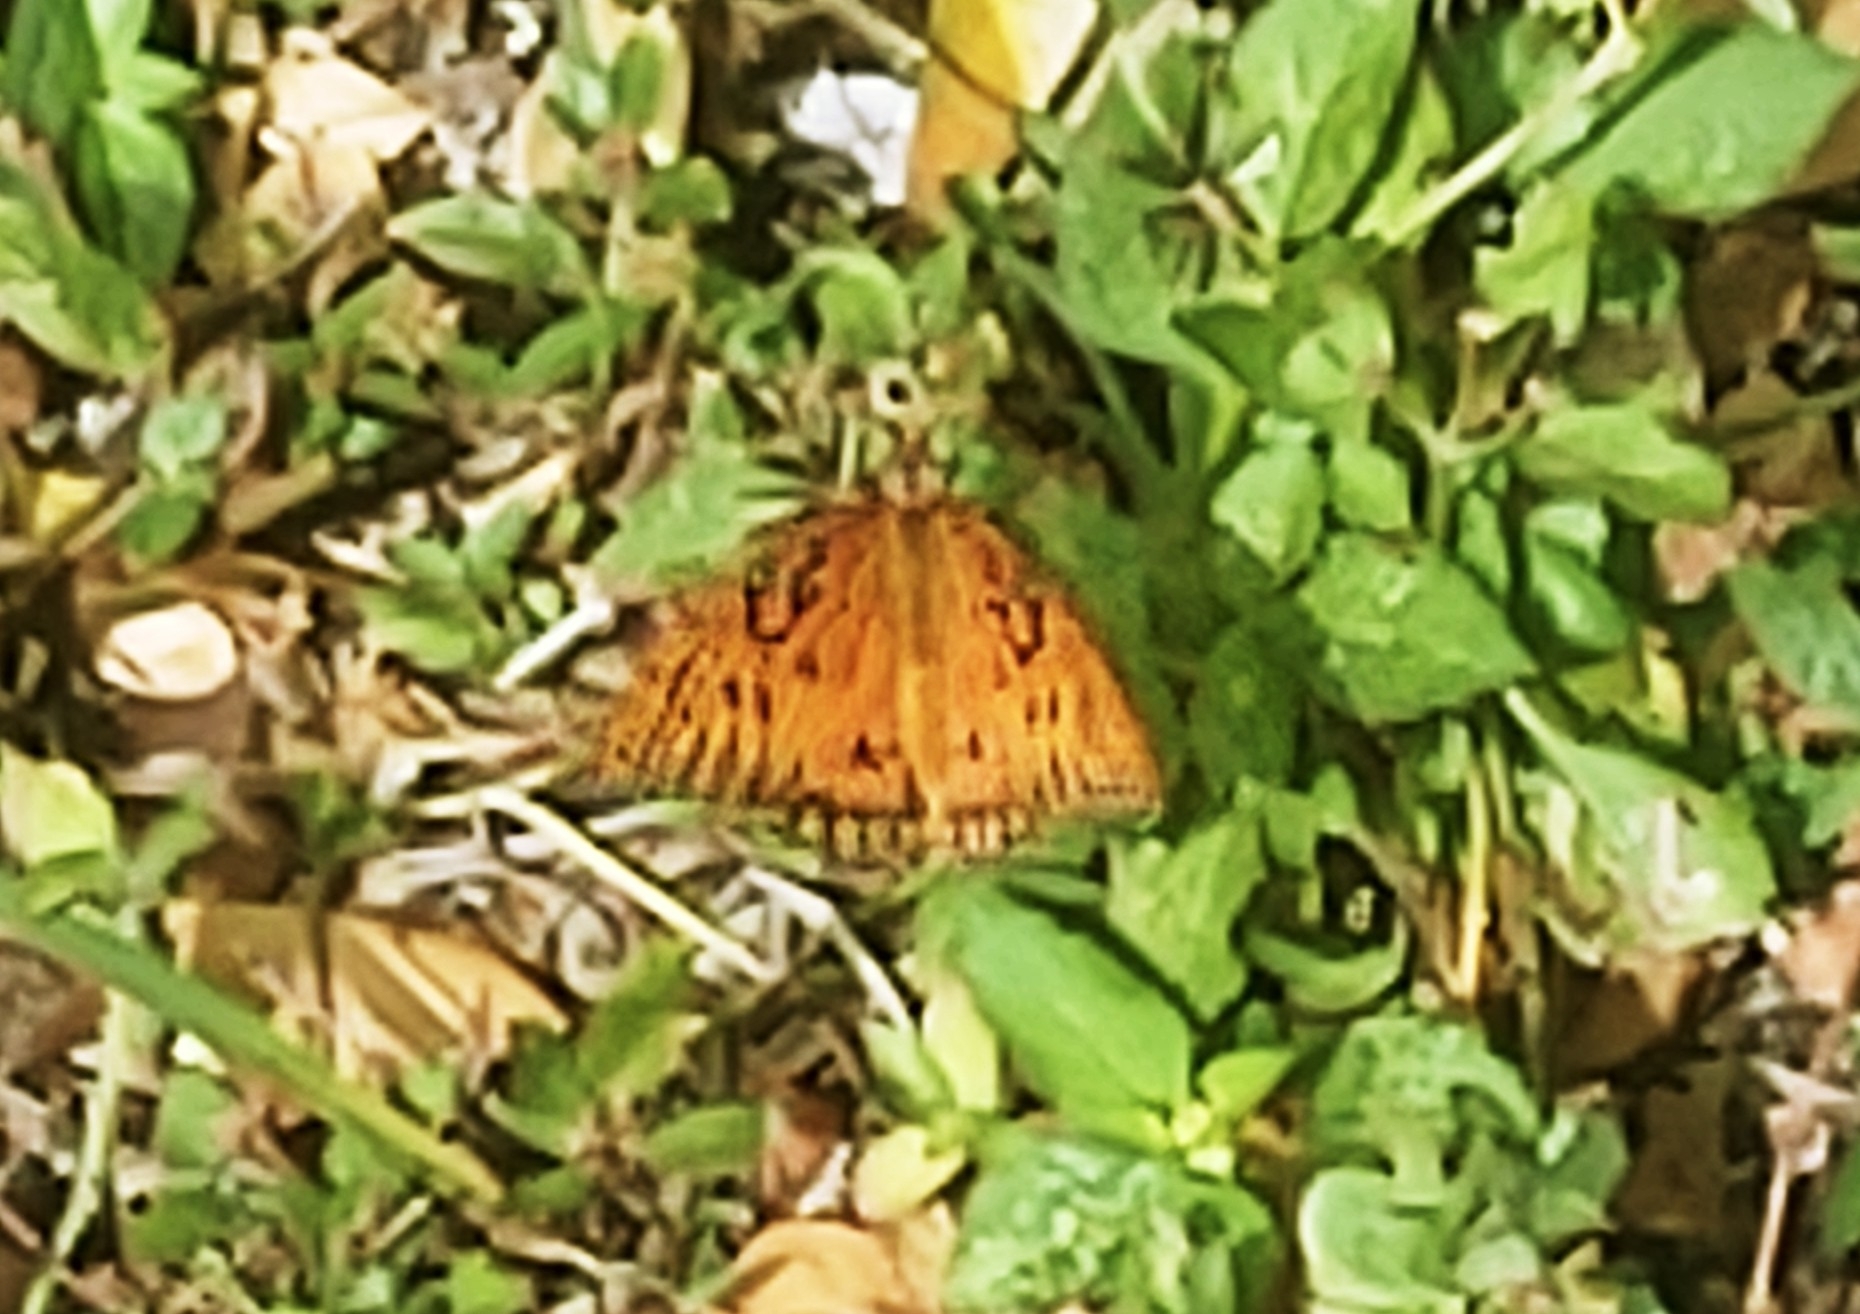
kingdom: Animalia
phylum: Arthropoda
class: Insecta
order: Lepidoptera
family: Nymphalidae
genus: Dione
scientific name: Dione vanillae
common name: Gulf fritillary
